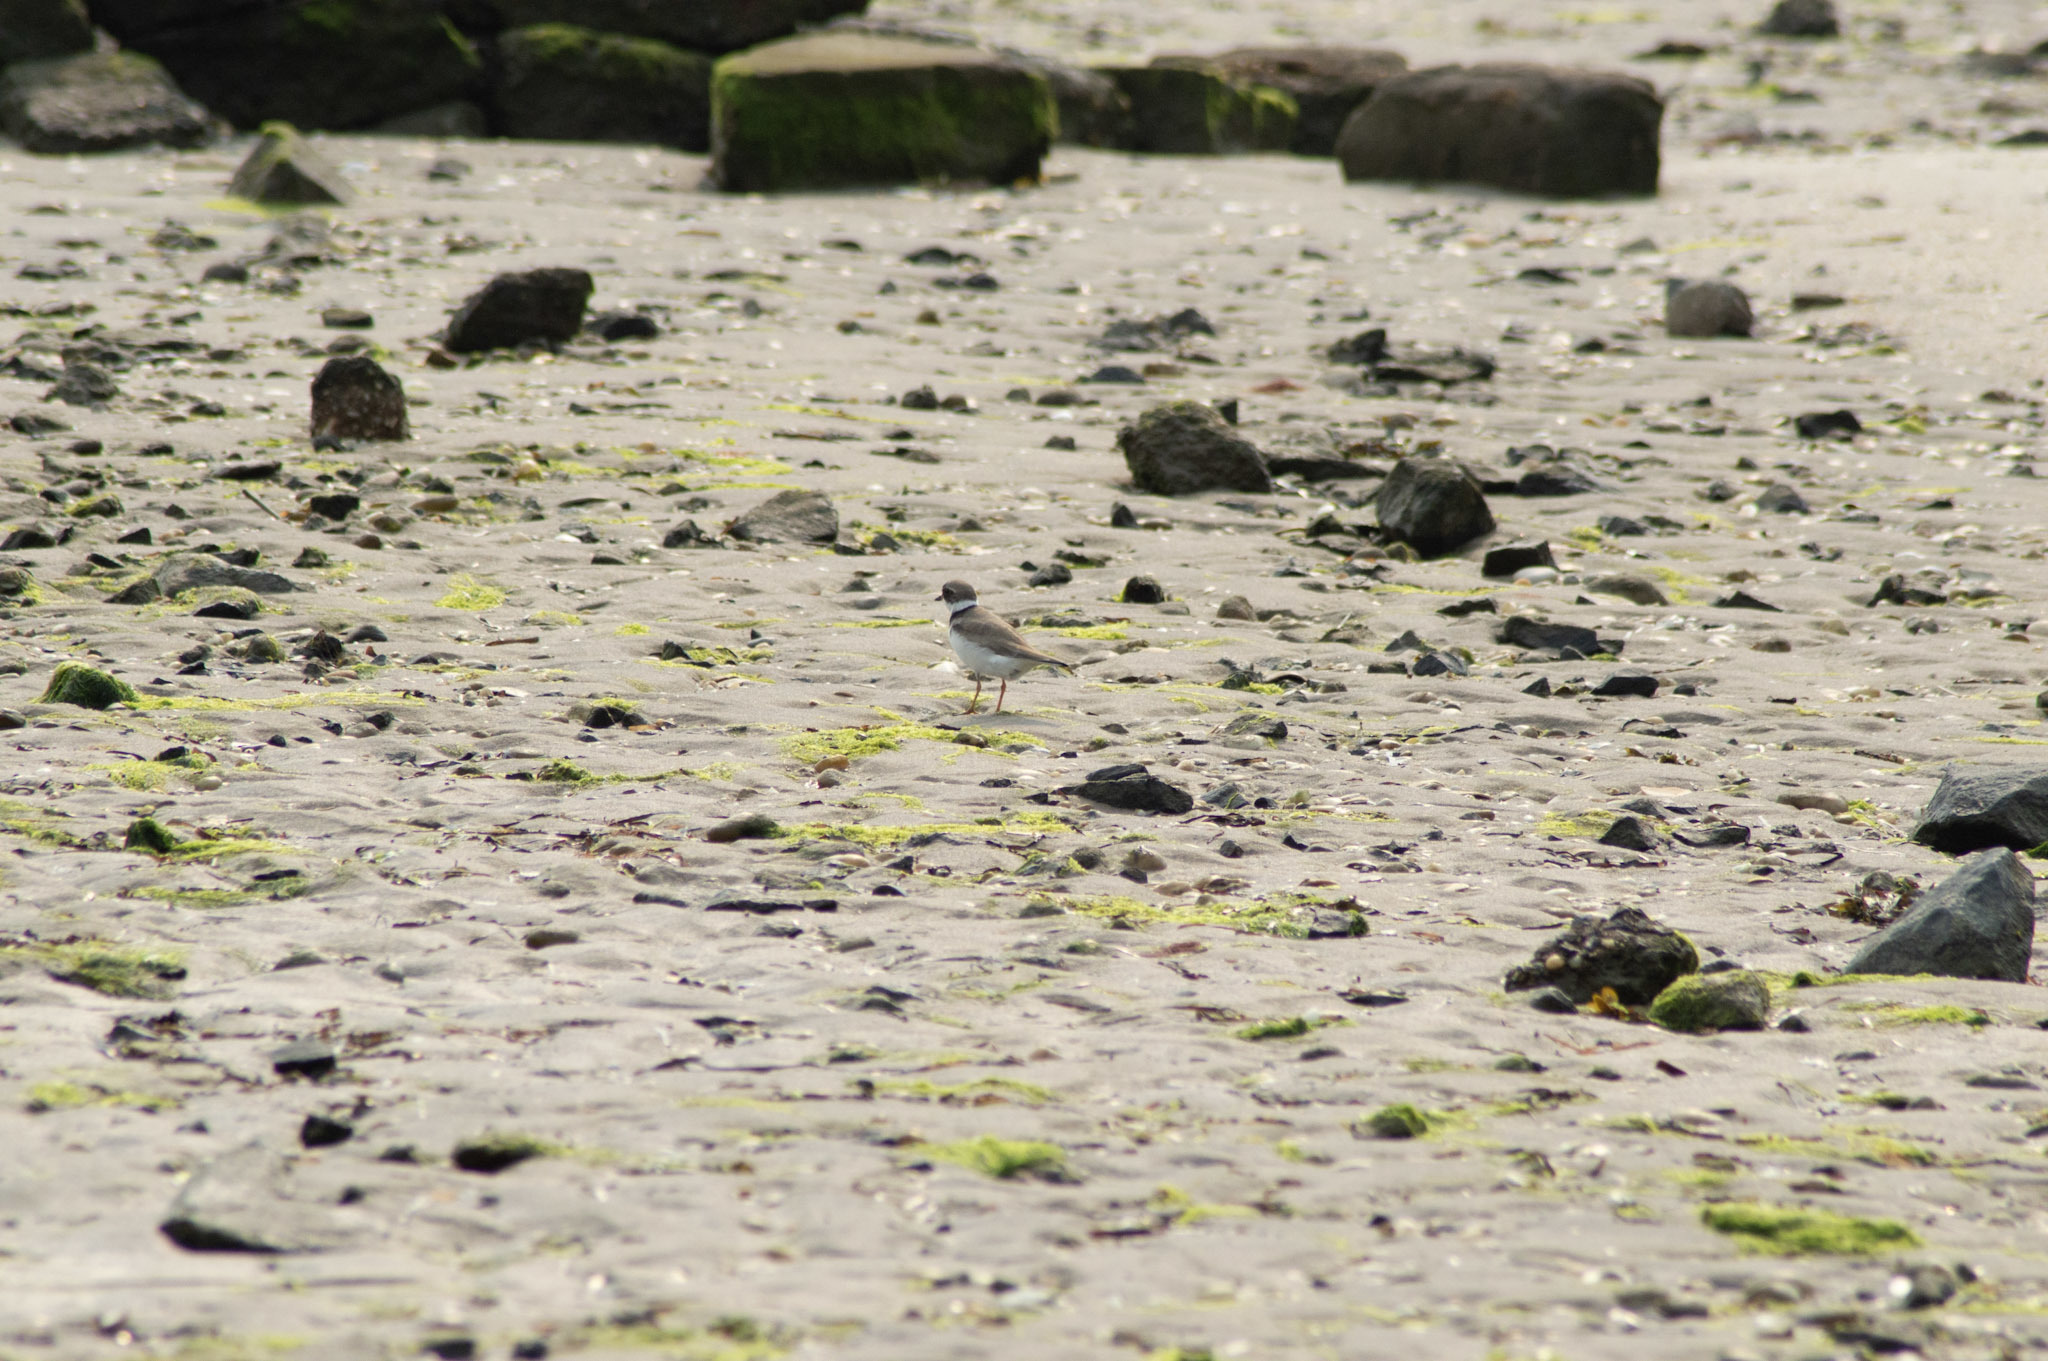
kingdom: Animalia
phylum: Chordata
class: Aves
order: Charadriiformes
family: Charadriidae
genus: Charadrius
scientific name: Charadrius semipalmatus
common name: Semipalmated plover
